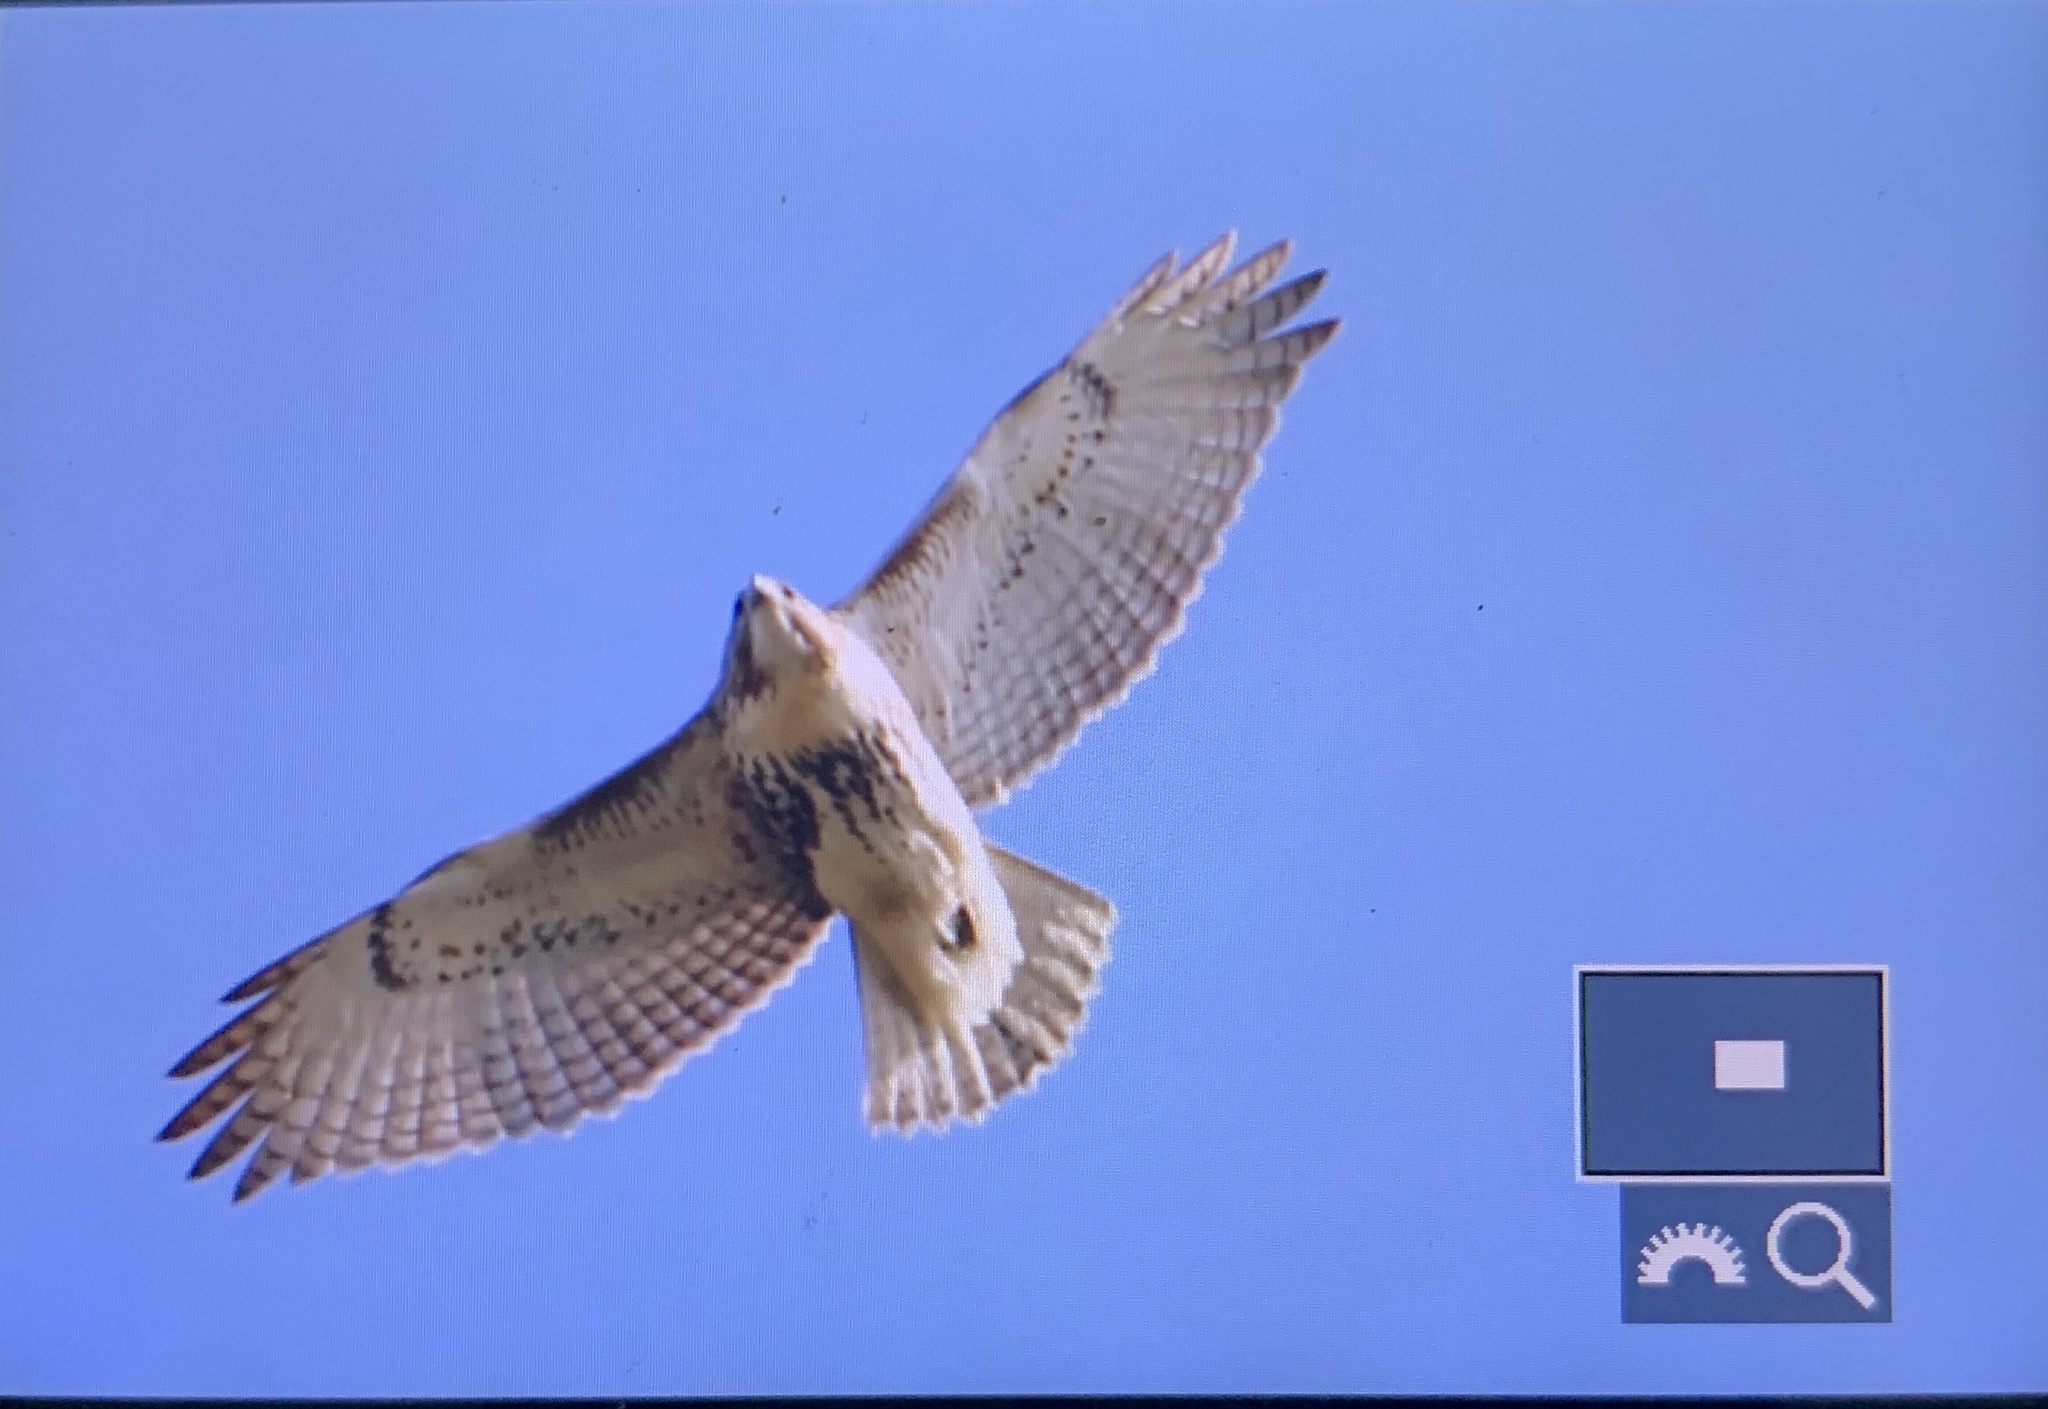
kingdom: Animalia
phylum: Chordata
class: Aves
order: Accipitriformes
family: Accipitridae
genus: Buteo
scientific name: Buteo jamaicensis
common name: Red-tailed hawk
